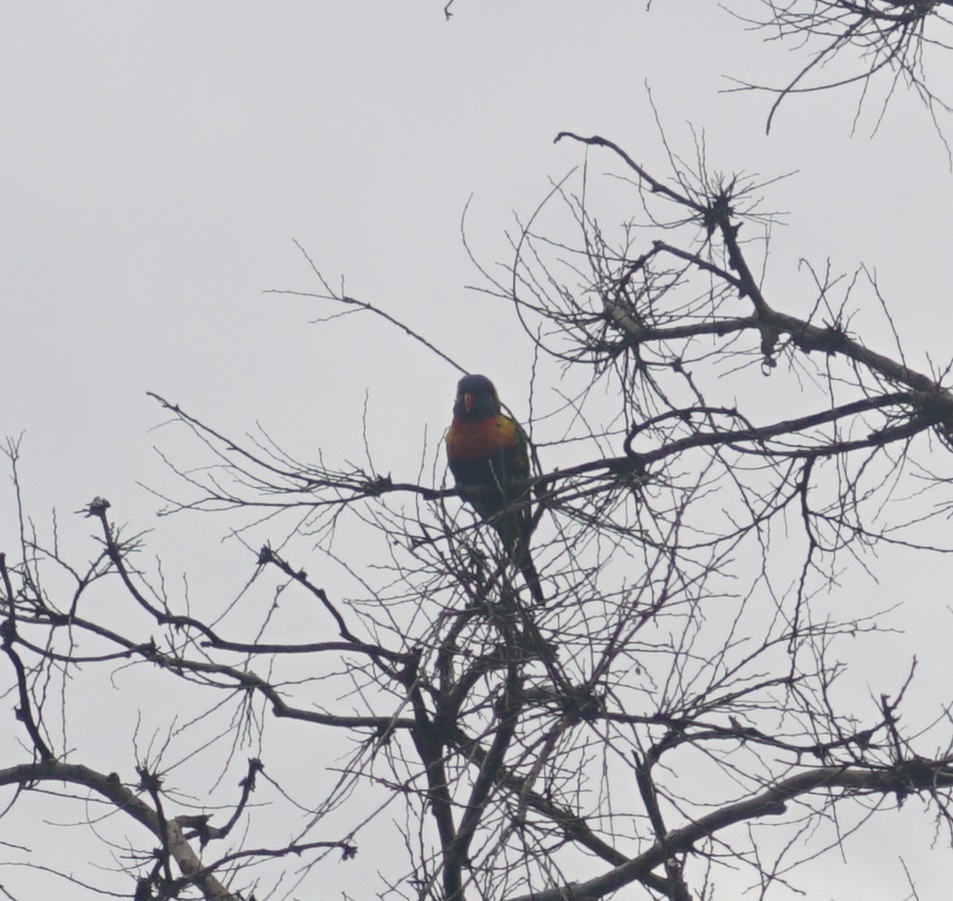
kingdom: Animalia
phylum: Chordata
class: Aves
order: Psittaciformes
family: Psittacidae
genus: Trichoglossus
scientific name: Trichoglossus haematodus
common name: Coconut lorikeet
